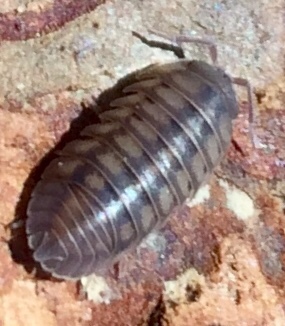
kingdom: Animalia
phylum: Arthropoda
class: Malacostraca
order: Isopoda
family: Armadillidiidae
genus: Armadillidium
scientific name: Armadillidium nasatum
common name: Isopod
